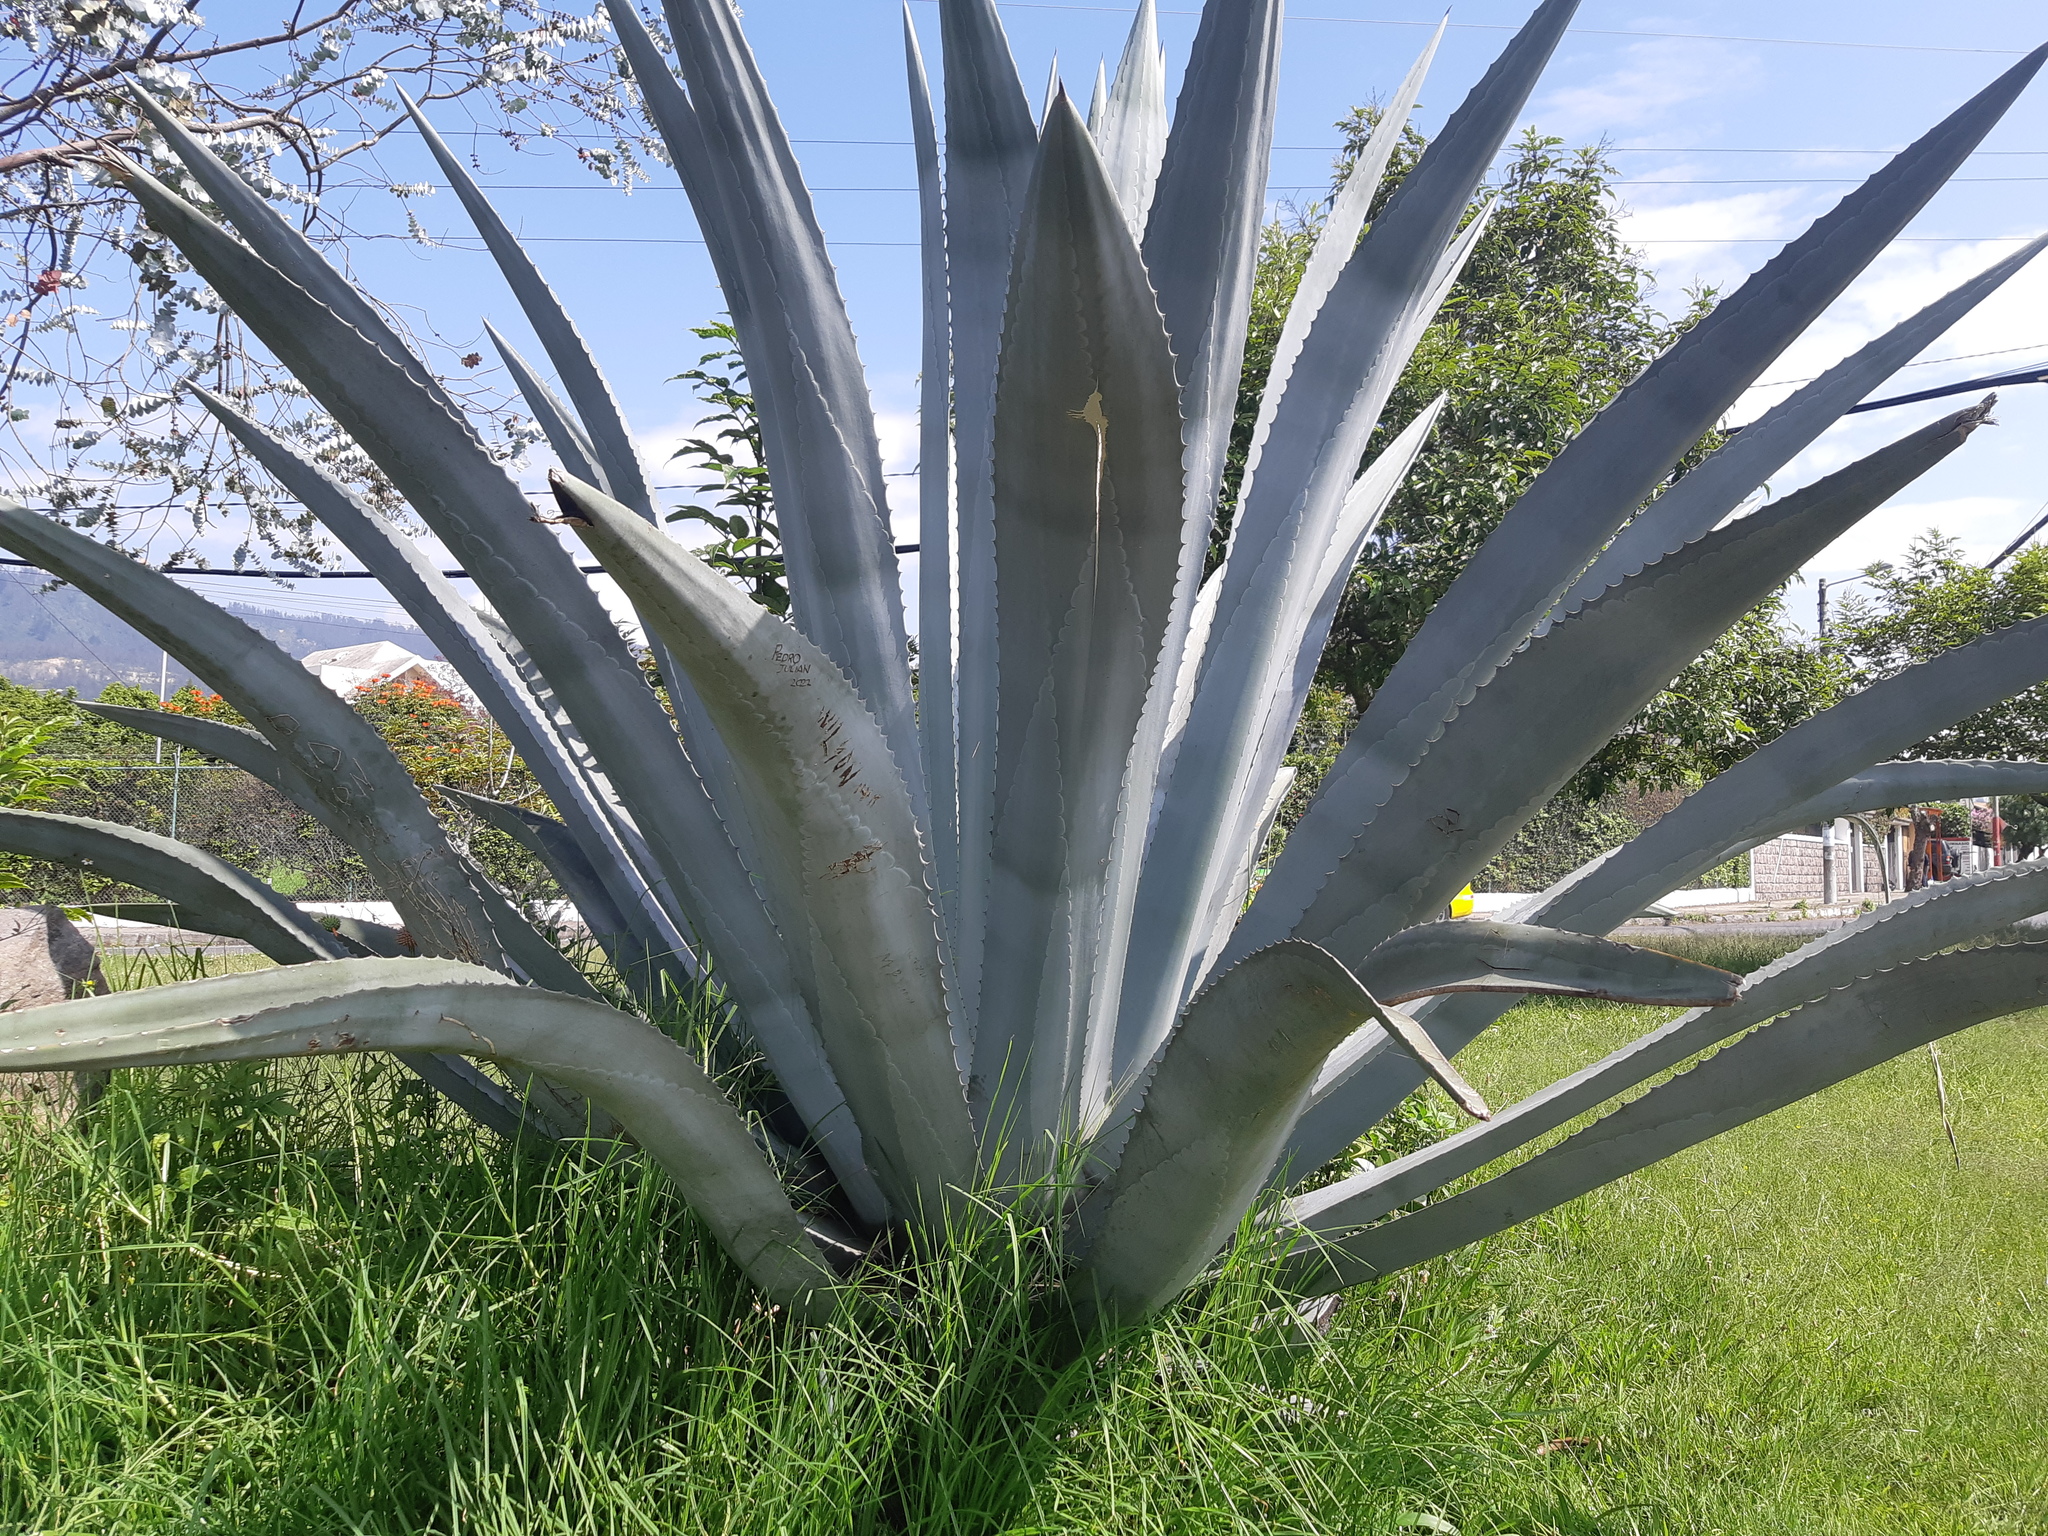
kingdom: Plantae
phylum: Tracheophyta
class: Liliopsida
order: Asparagales
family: Asparagaceae
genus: Agave
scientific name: Agave americana
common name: Centuryplant
